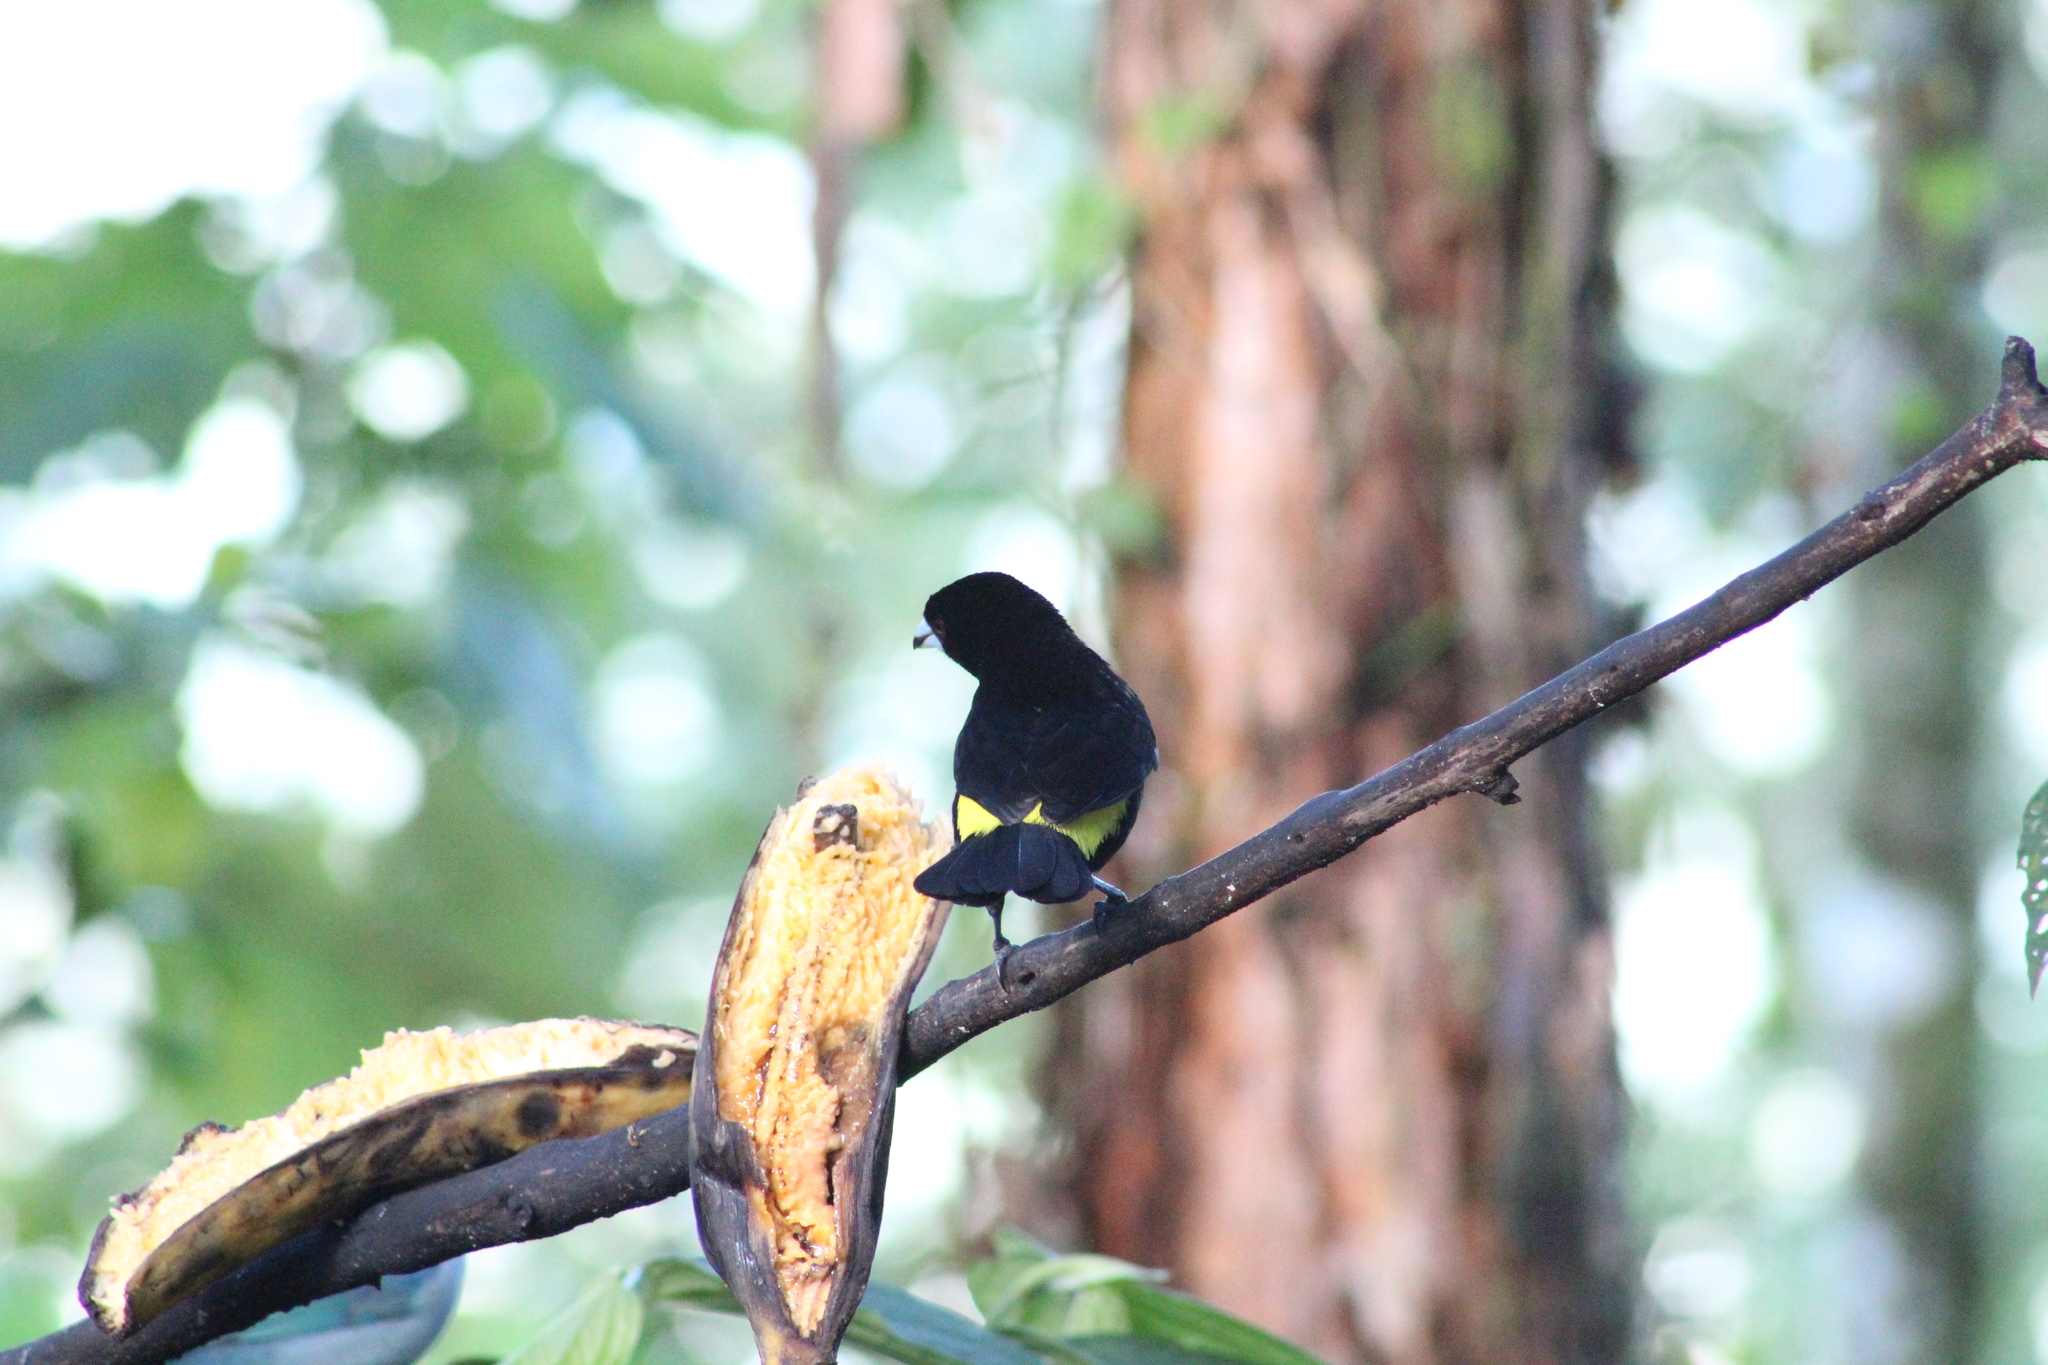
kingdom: Animalia
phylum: Chordata
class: Aves
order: Passeriformes
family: Thraupidae
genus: Ramphocelus
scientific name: Ramphocelus icteronotus
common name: Lemon-rumped tanager
